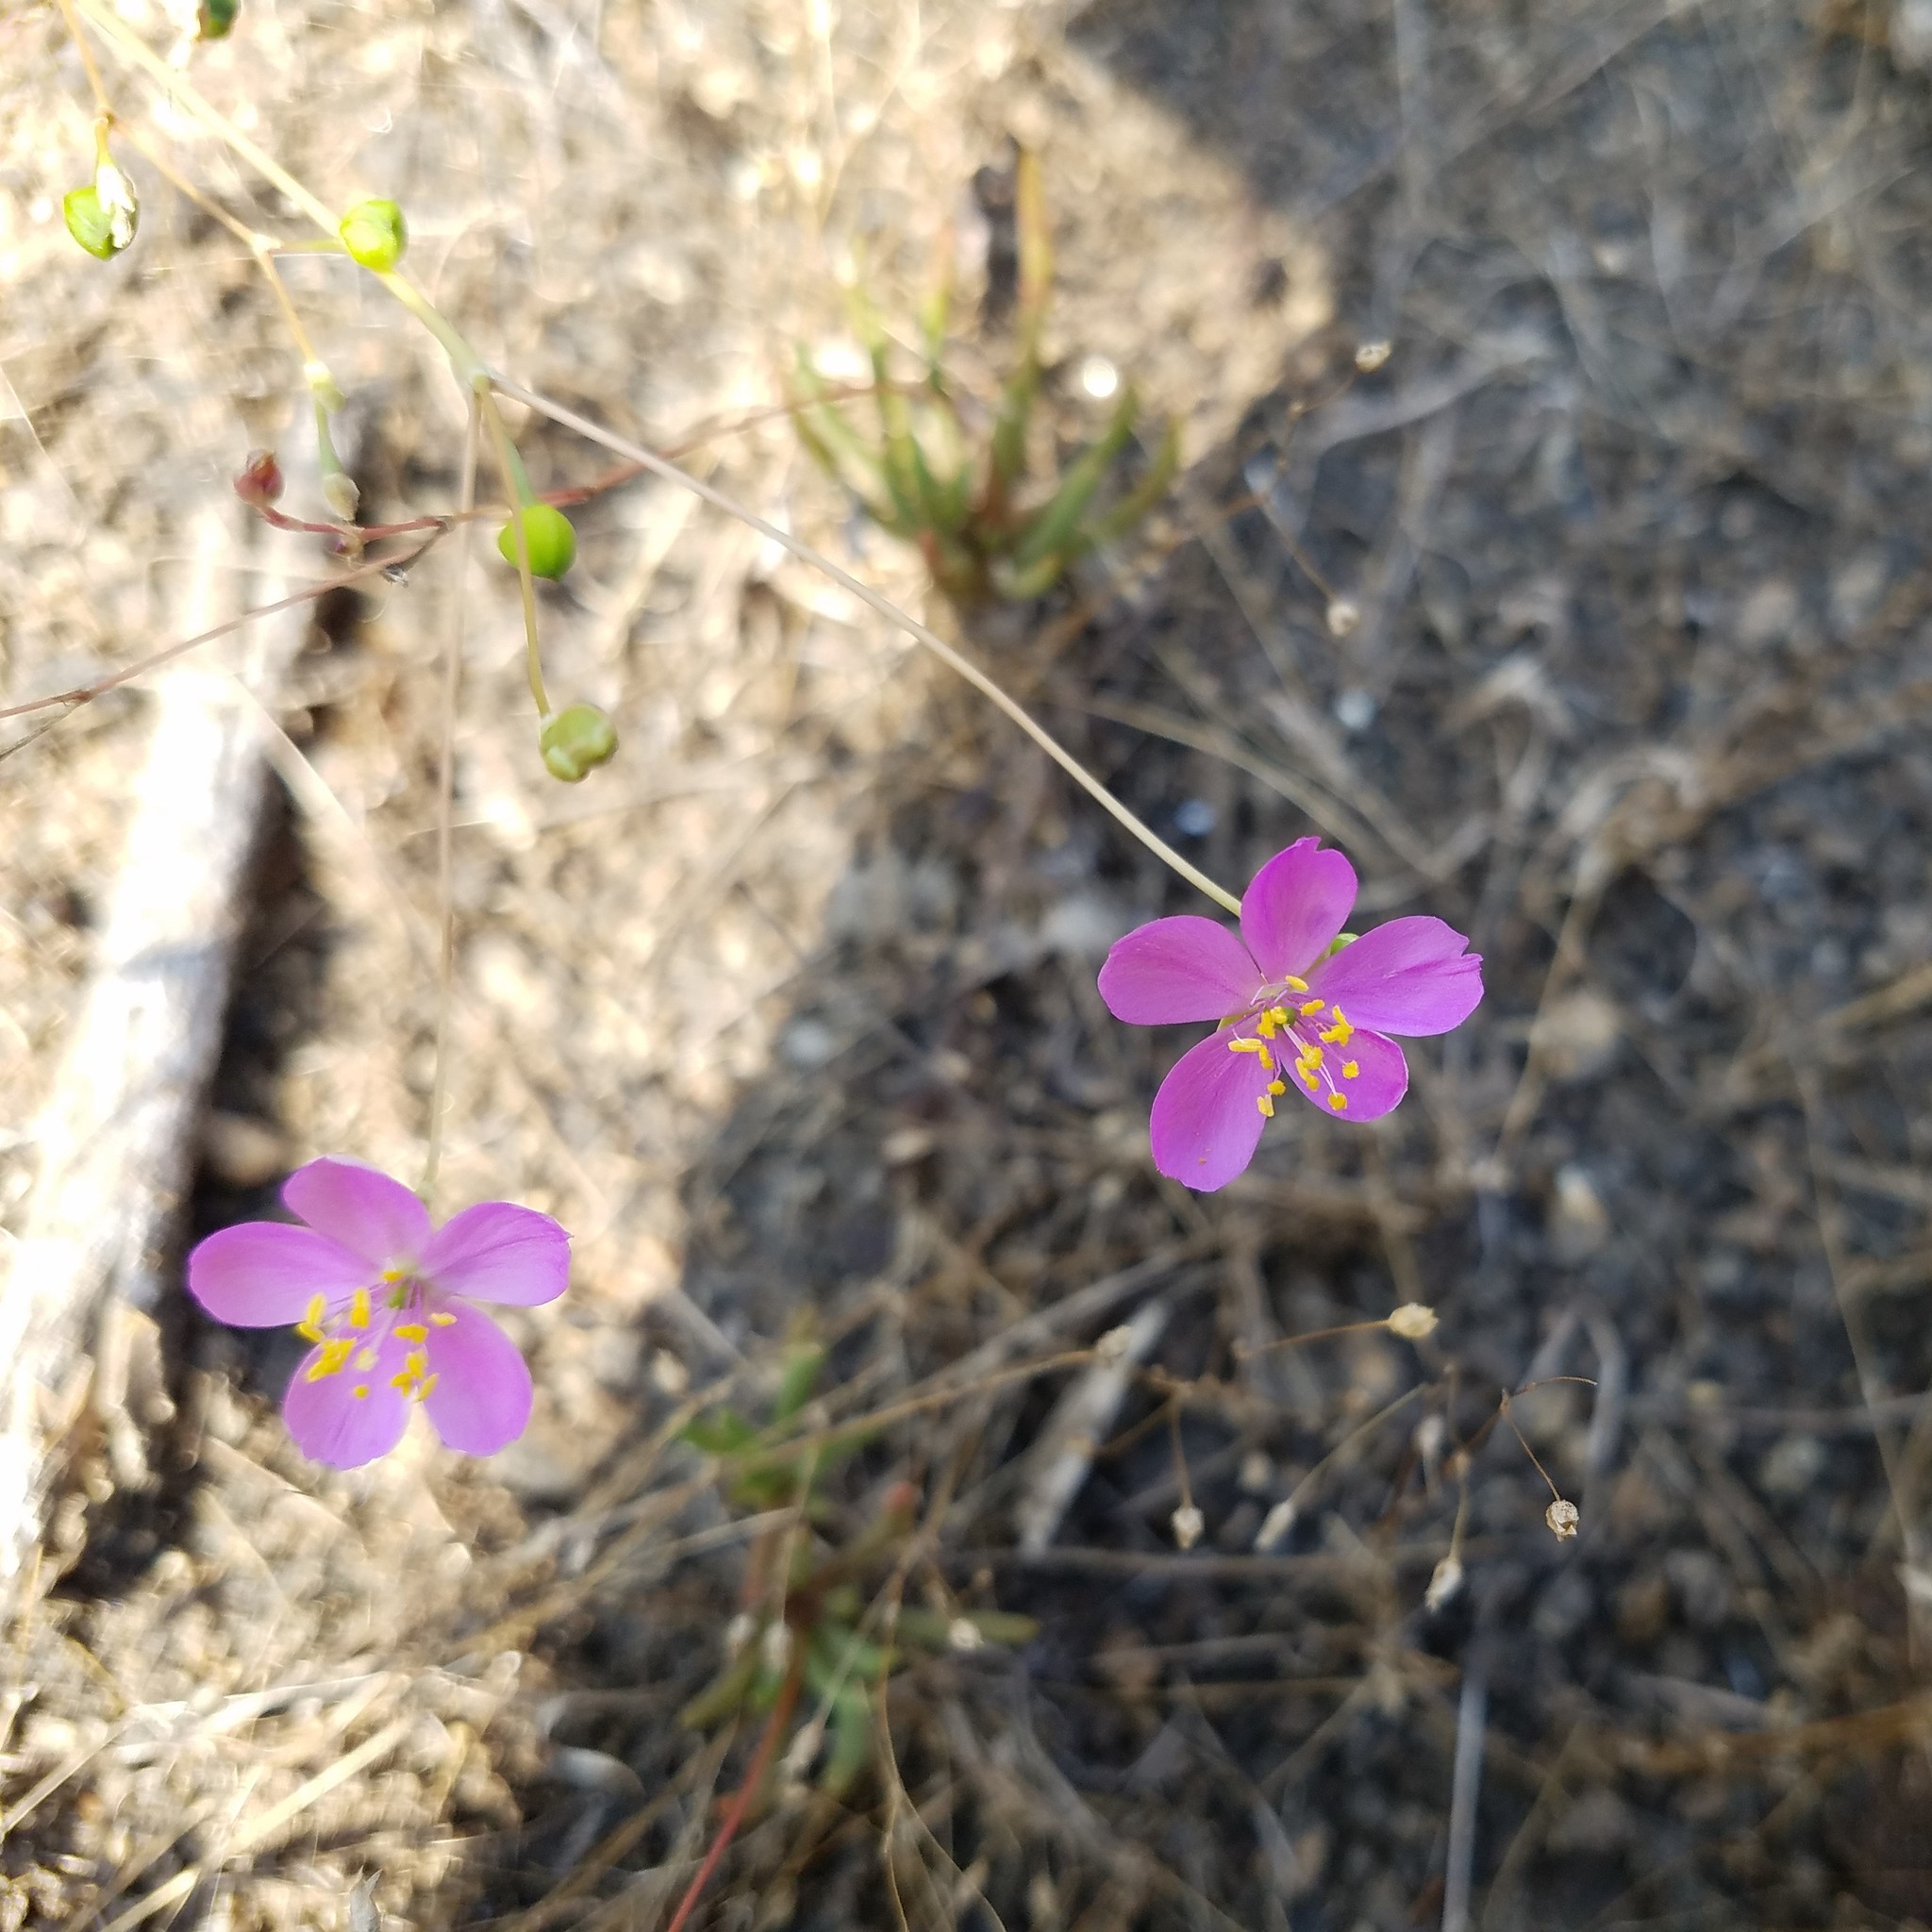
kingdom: Plantae
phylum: Tracheophyta
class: Magnoliopsida
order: Caryophyllales
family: Montiaceae
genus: Phemeranthus
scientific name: Phemeranthus teretifolius
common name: Quill fameflower
